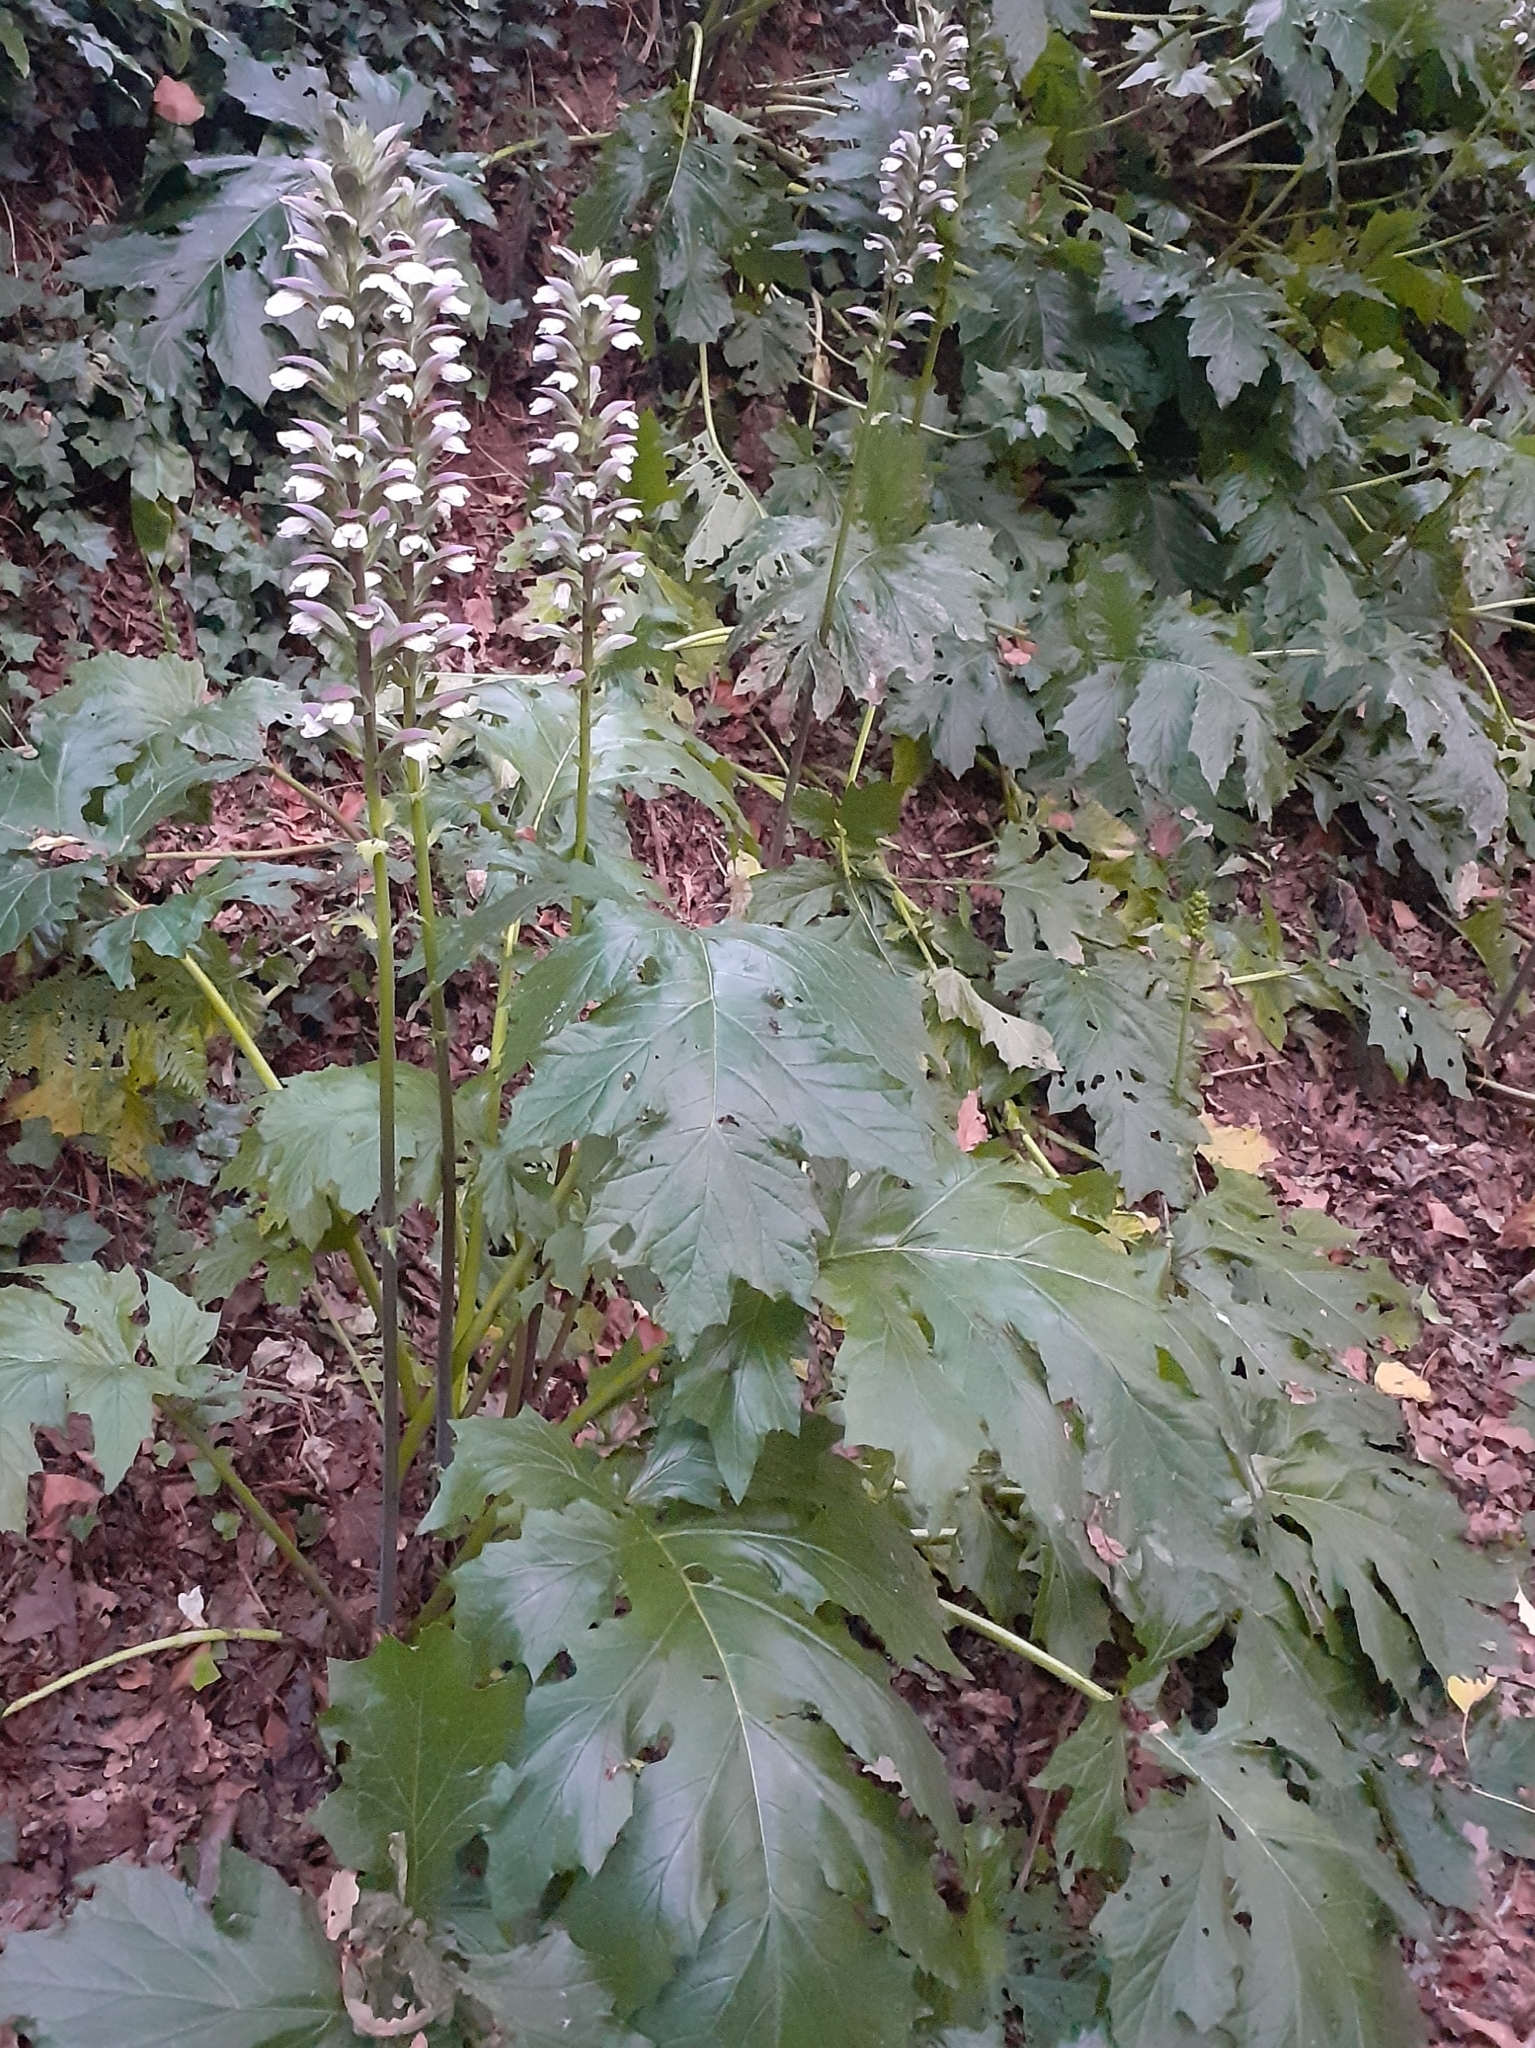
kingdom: Plantae
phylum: Tracheophyta
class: Magnoliopsida
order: Lamiales
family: Acanthaceae
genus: Acanthus
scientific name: Acanthus mollis
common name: Bear's-breech
